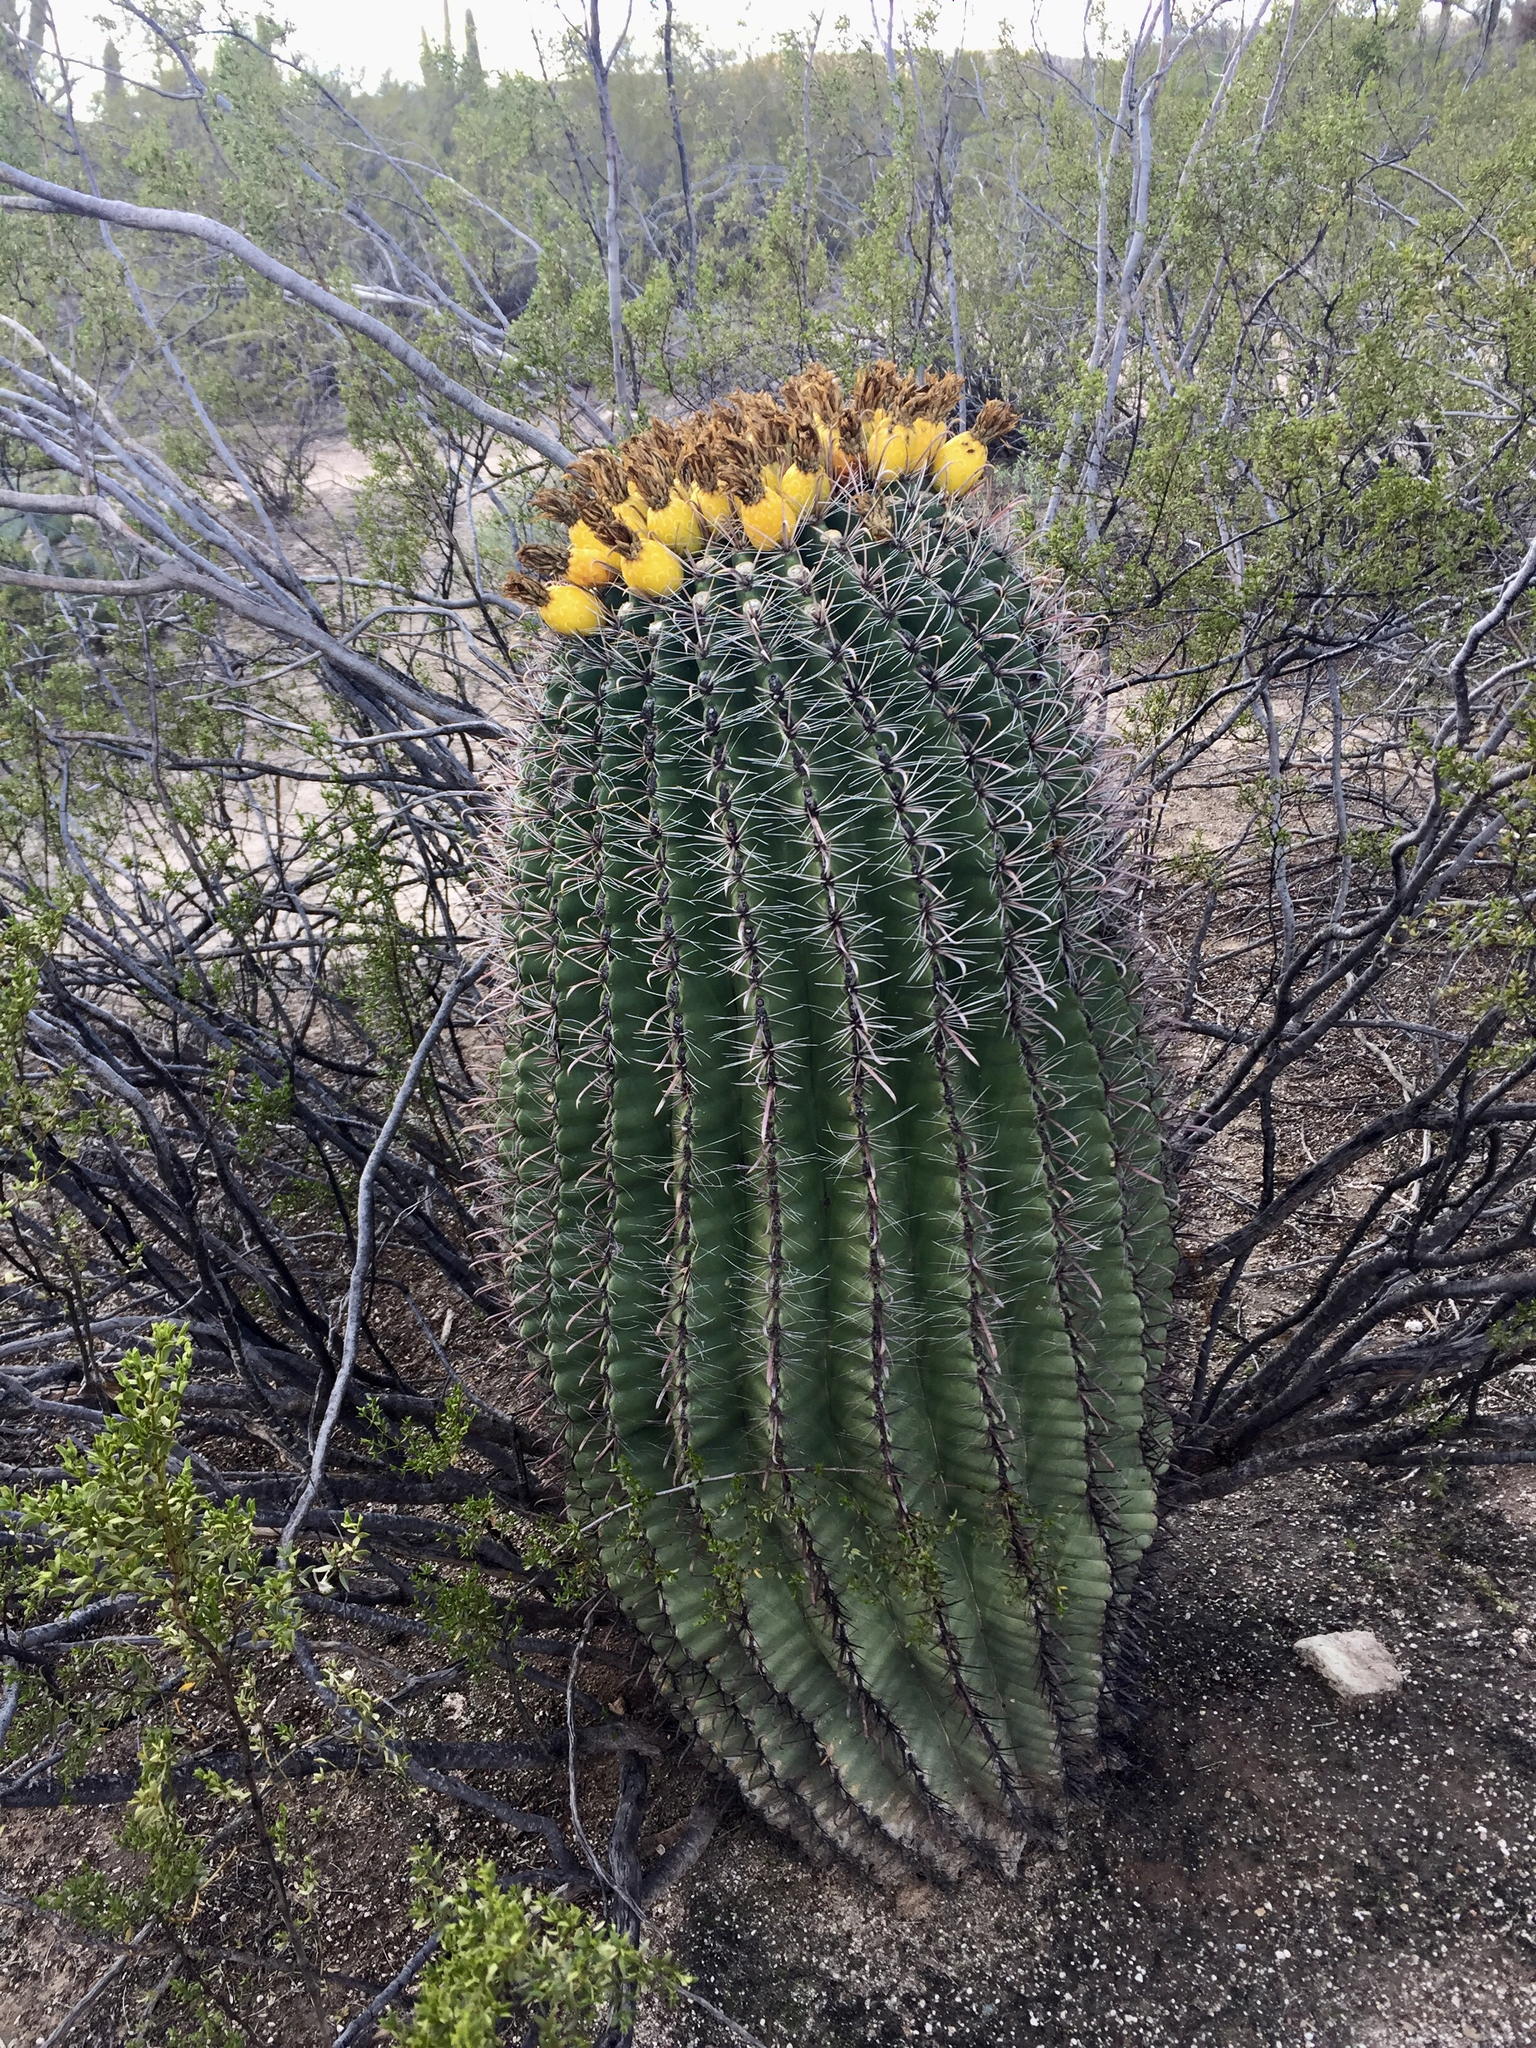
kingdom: Plantae
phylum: Tracheophyta
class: Magnoliopsida
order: Caryophyllales
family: Cactaceae
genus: Ferocactus
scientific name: Ferocactus wislizeni
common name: Candy barrel cactus
